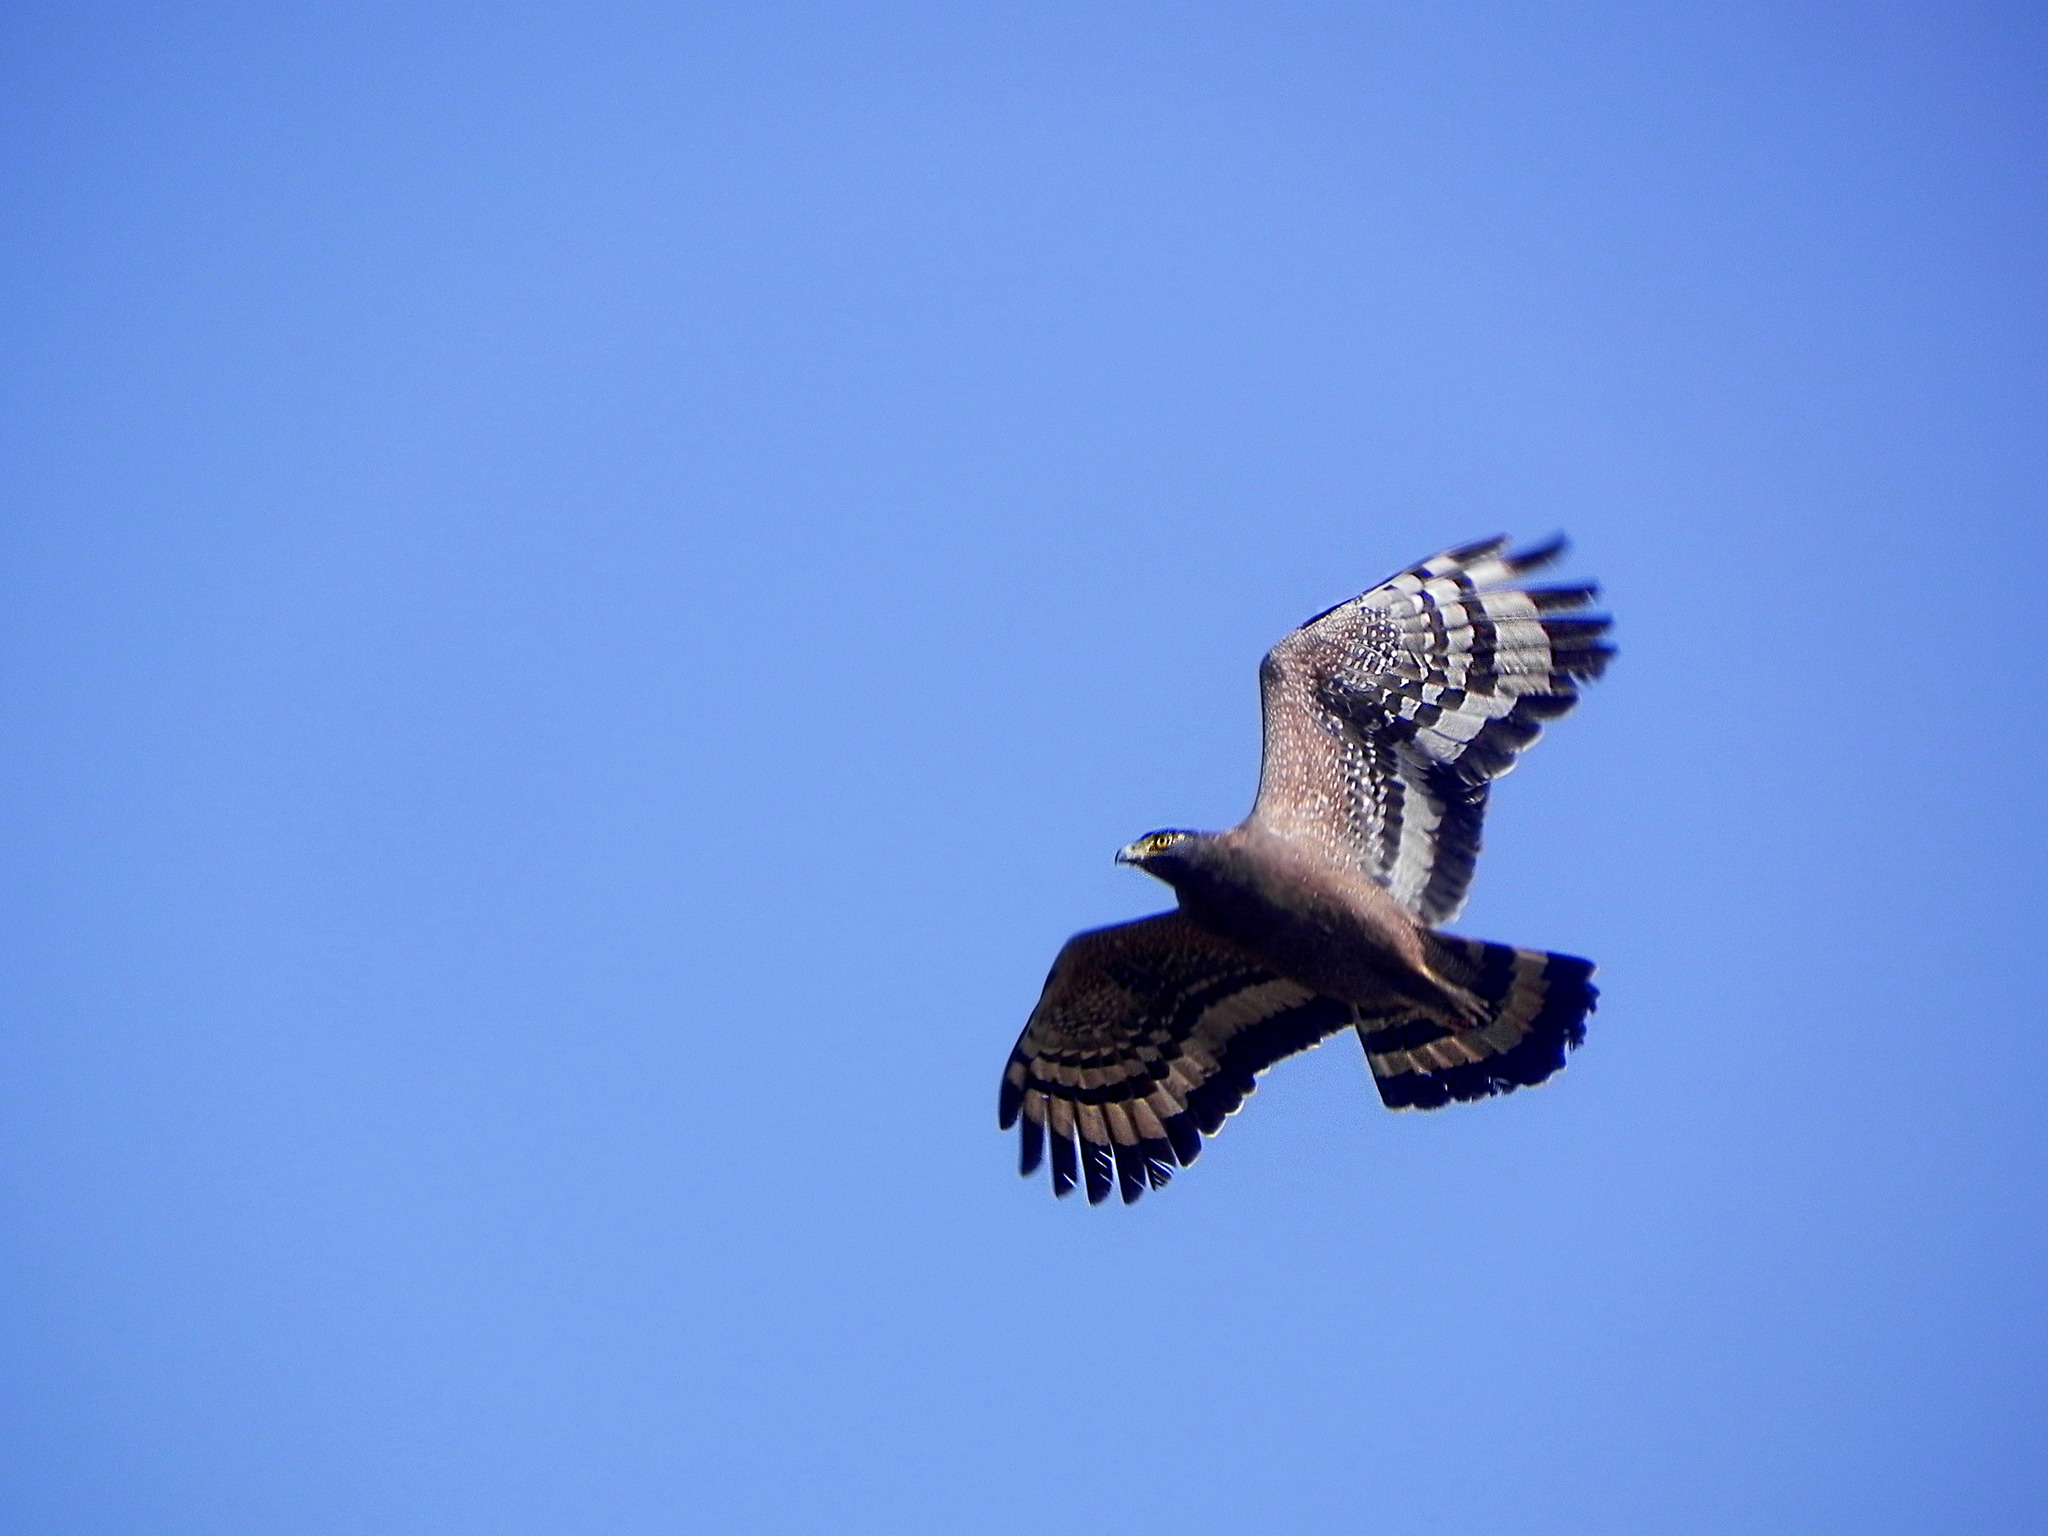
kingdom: Animalia
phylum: Chordata
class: Aves
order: Accipitriformes
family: Accipitridae
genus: Spilornis
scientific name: Spilornis cheela
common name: Crested serpent eagle
